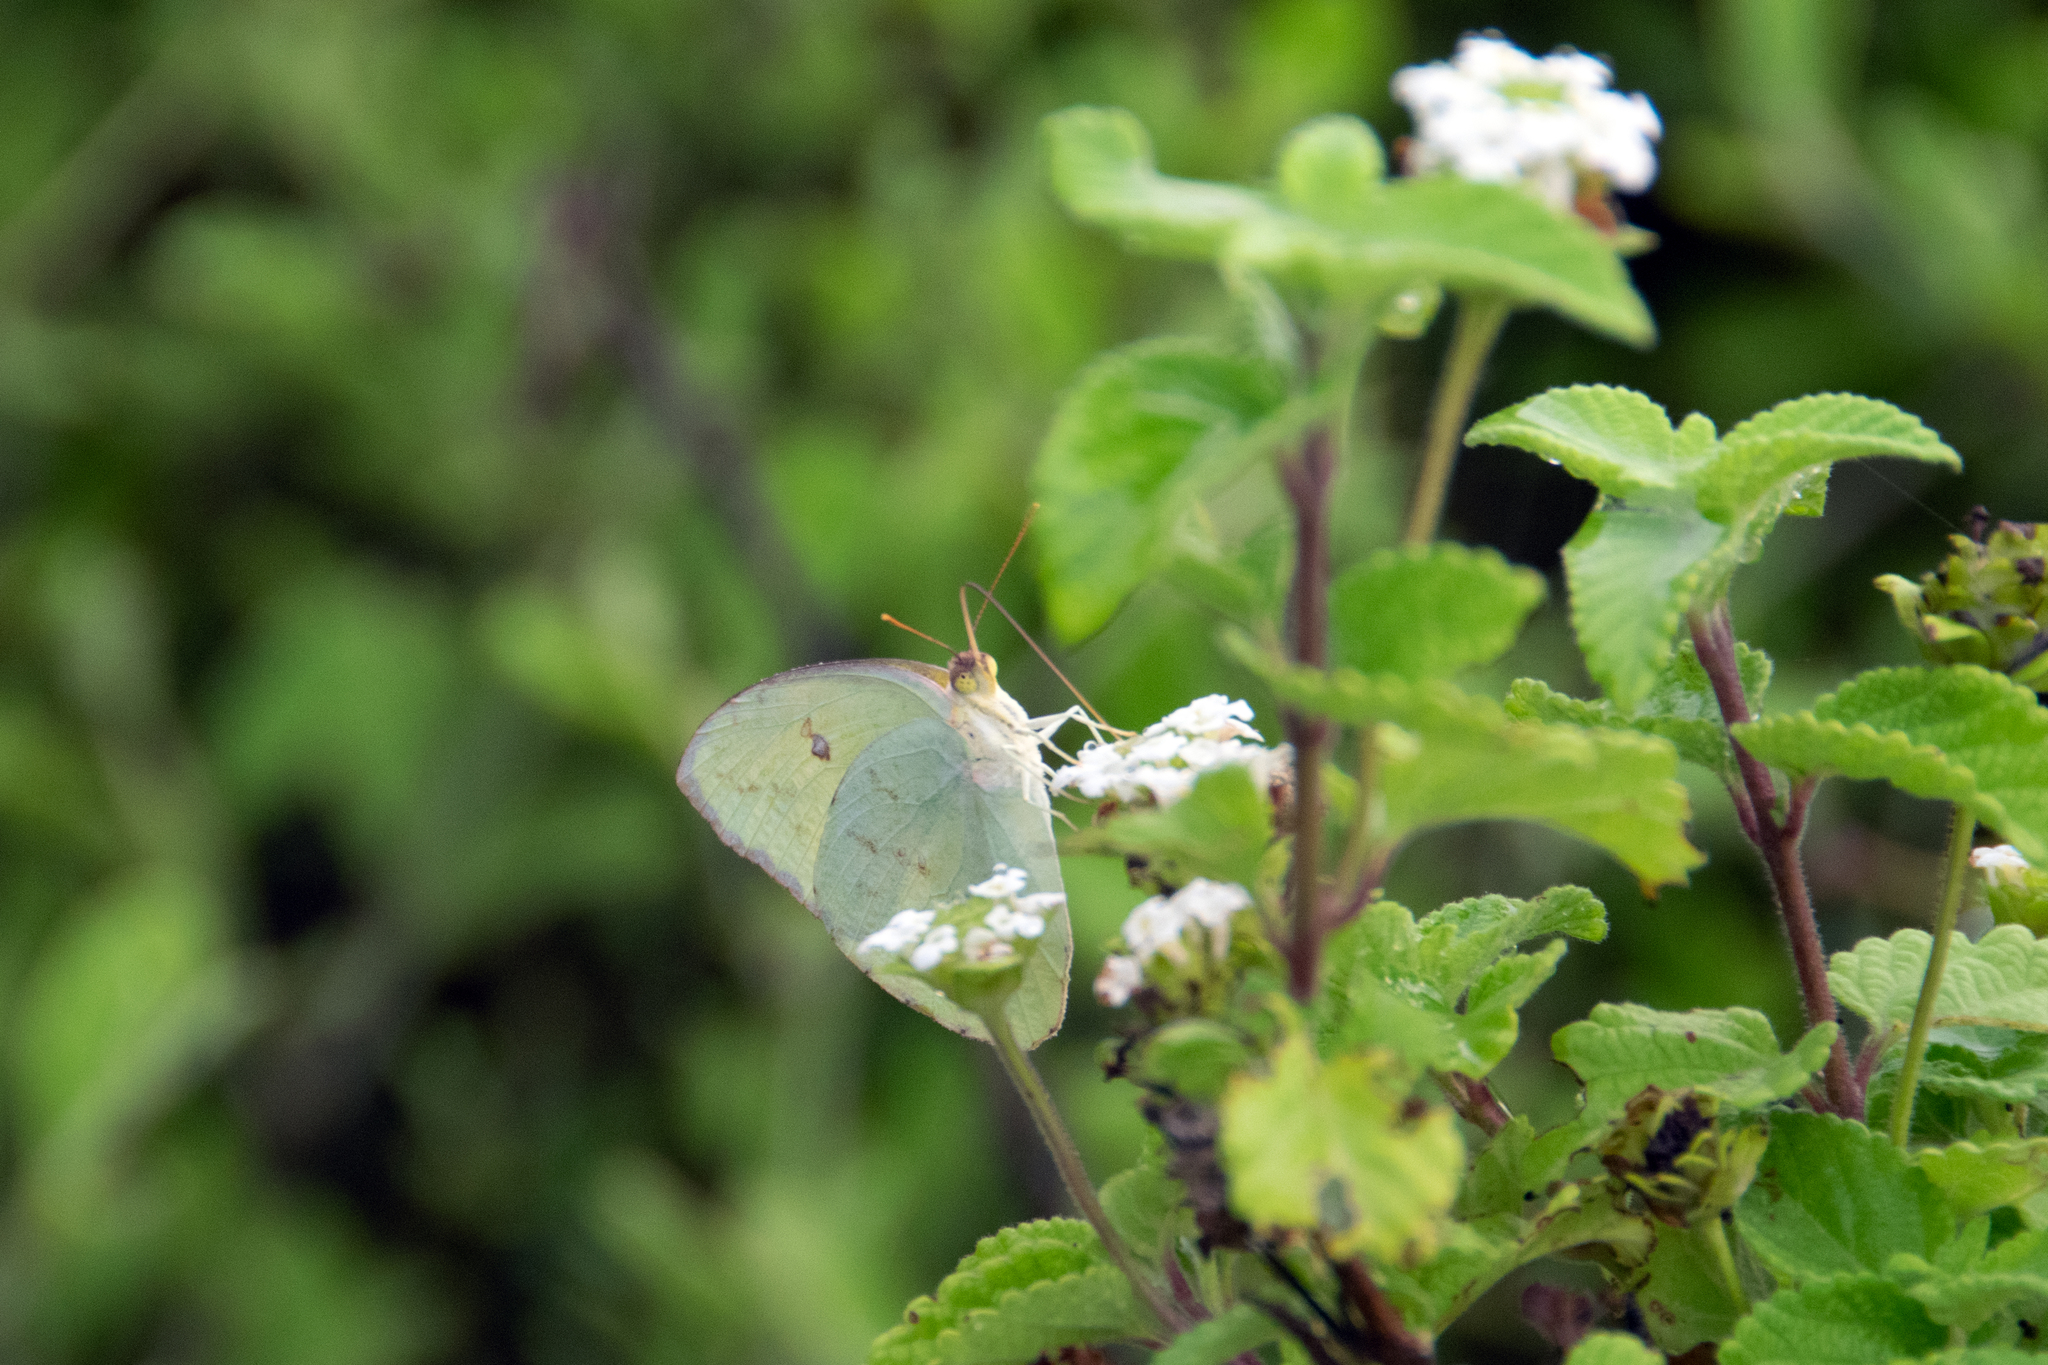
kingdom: Animalia
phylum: Arthropoda
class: Insecta
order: Lepidoptera
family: Pieridae
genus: Phoebis
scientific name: Phoebis marcellina
